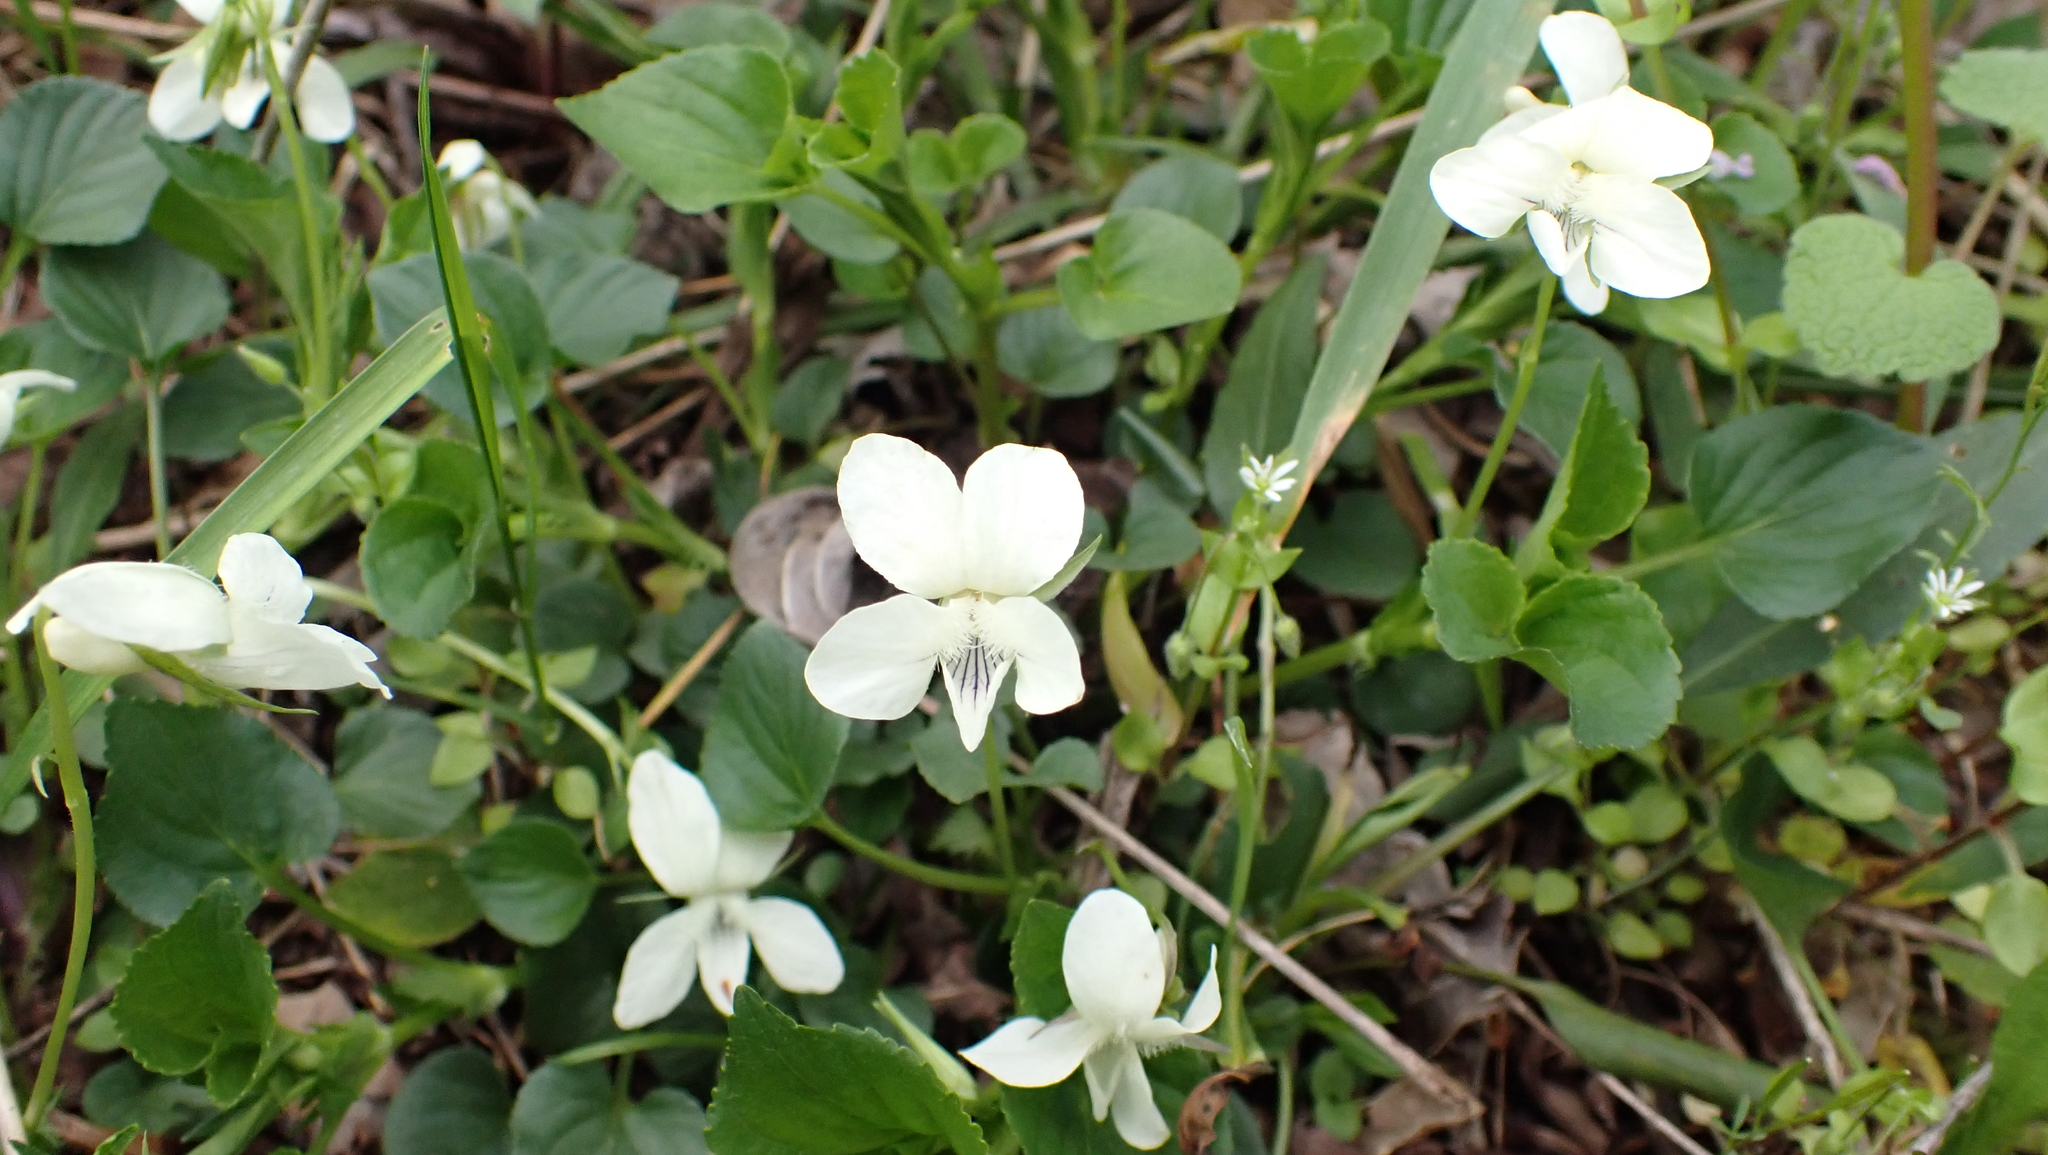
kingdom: Plantae
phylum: Tracheophyta
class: Magnoliopsida
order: Malpighiales
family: Violaceae
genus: Viola
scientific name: Viola striata
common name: Cream violet
